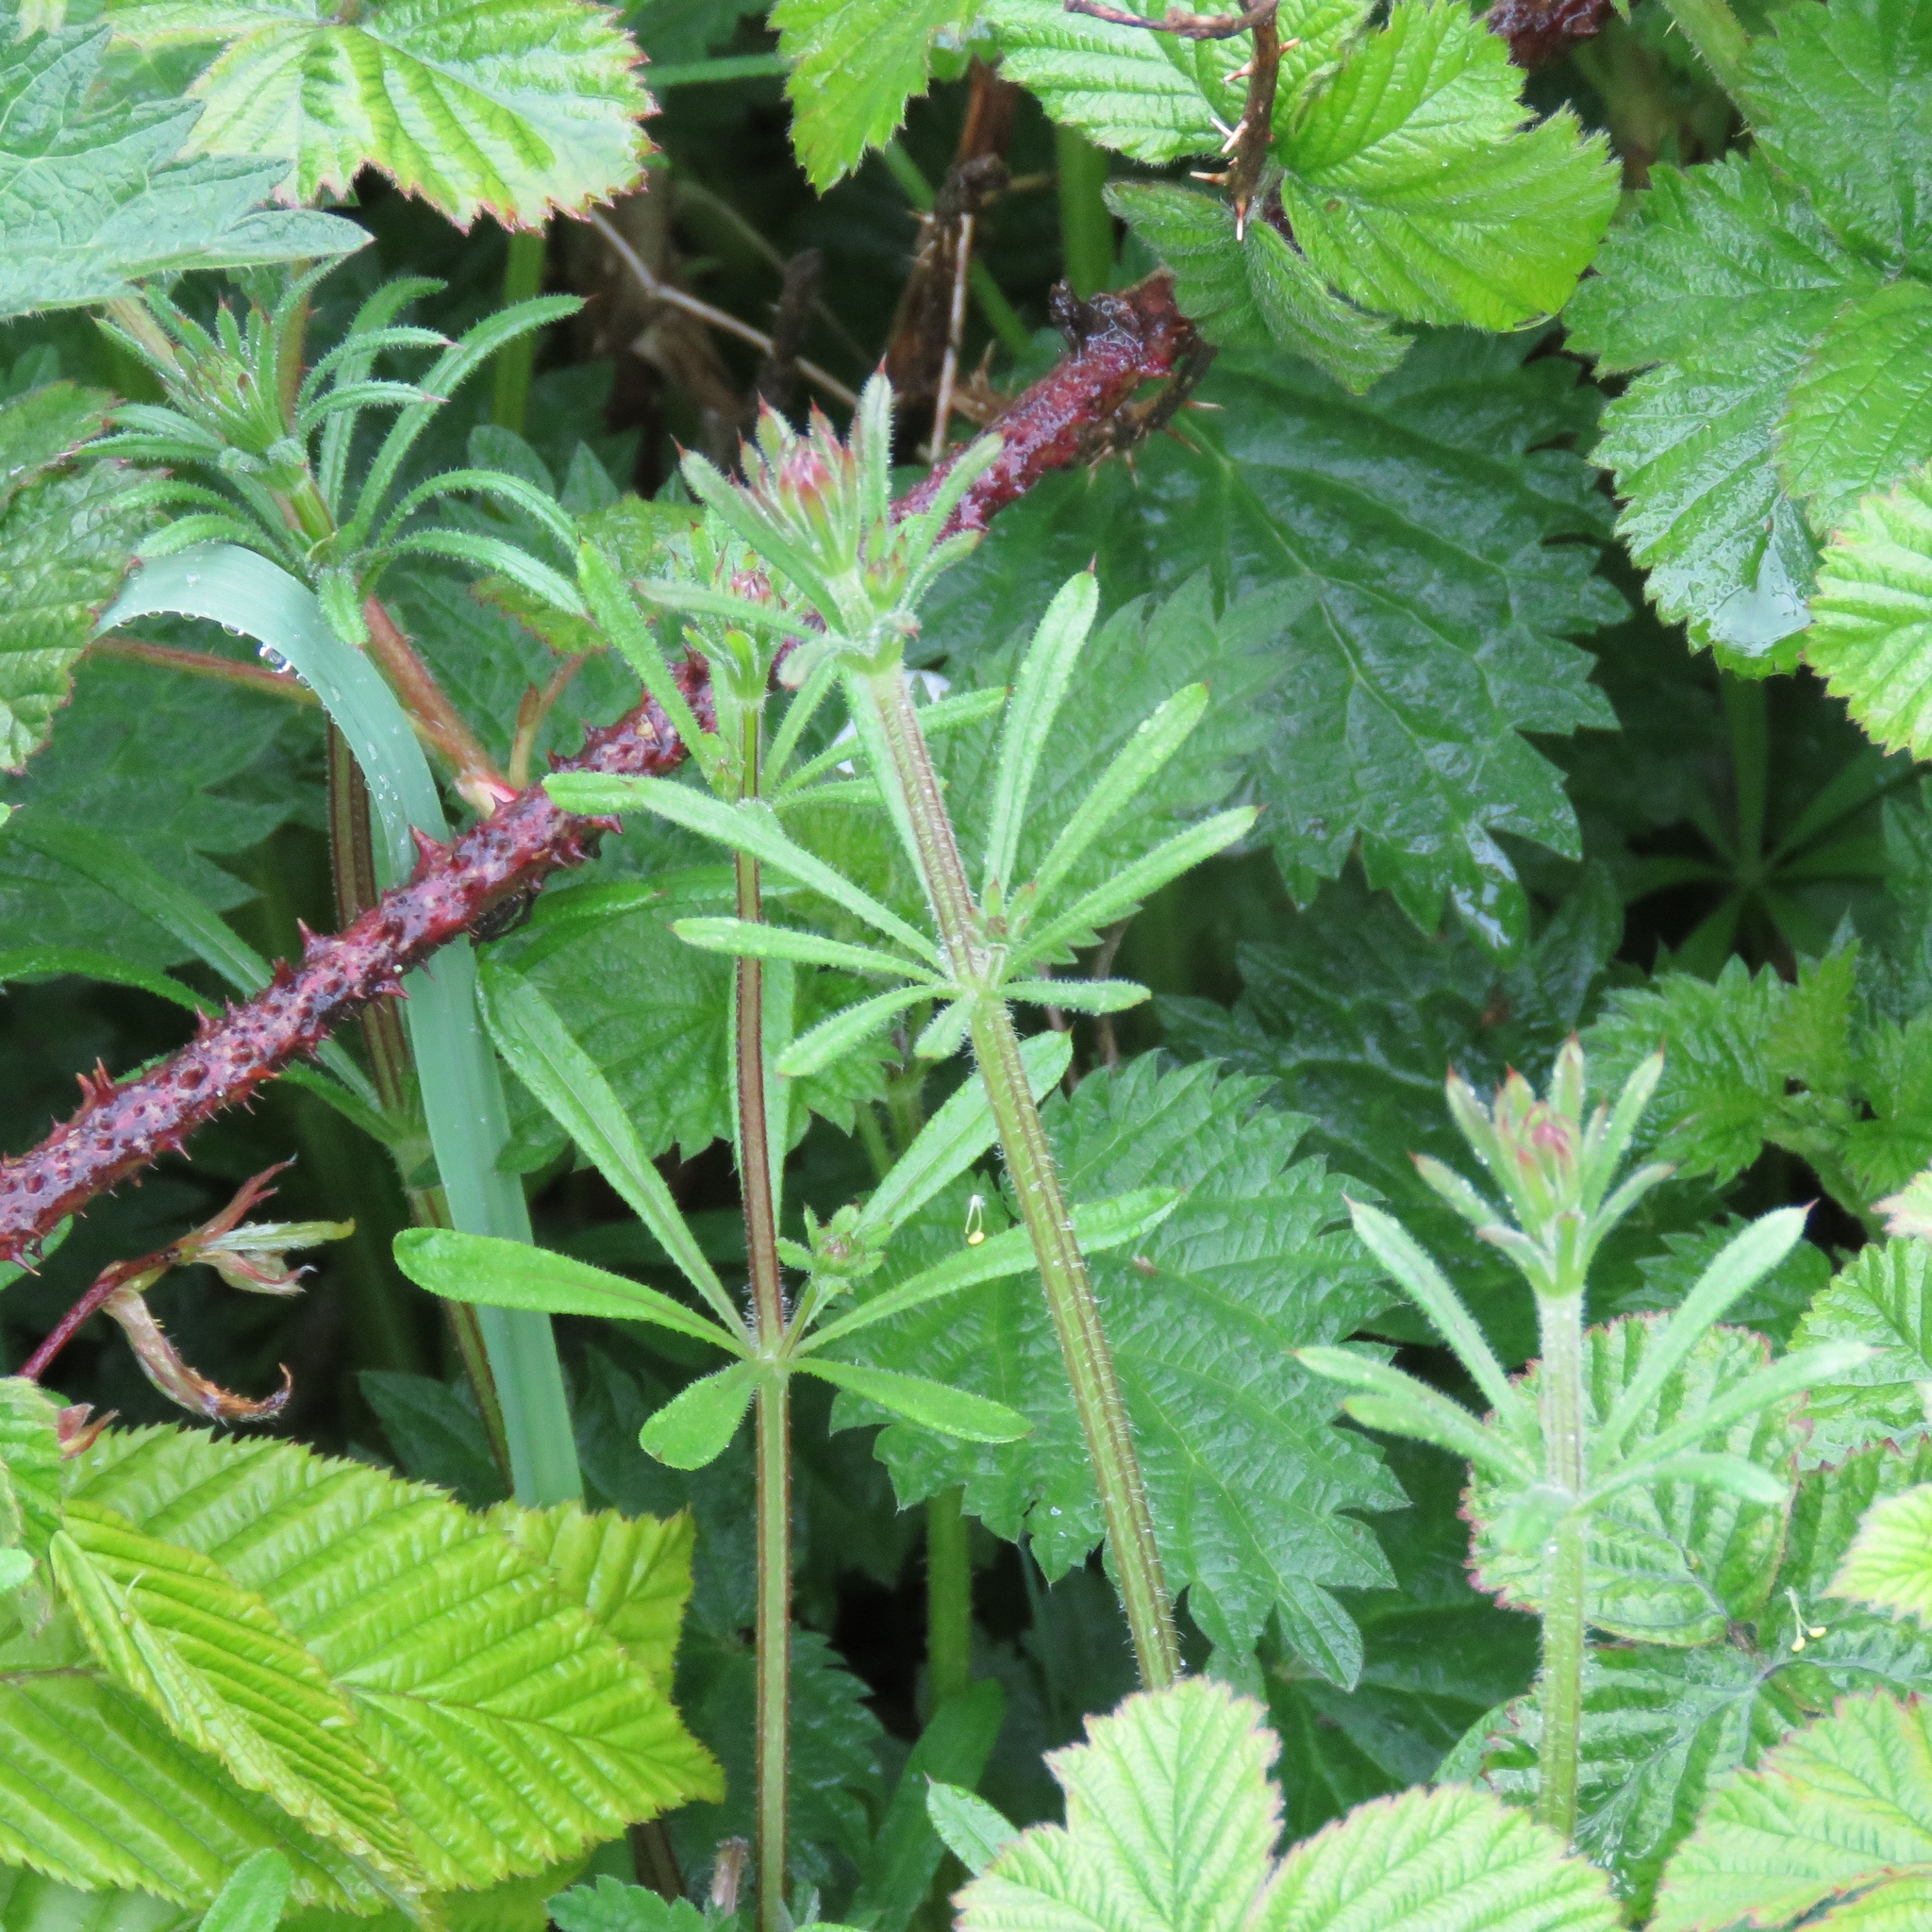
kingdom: Plantae
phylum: Tracheophyta
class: Magnoliopsida
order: Gentianales
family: Rubiaceae
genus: Galium
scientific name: Galium aparine
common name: Cleavers
